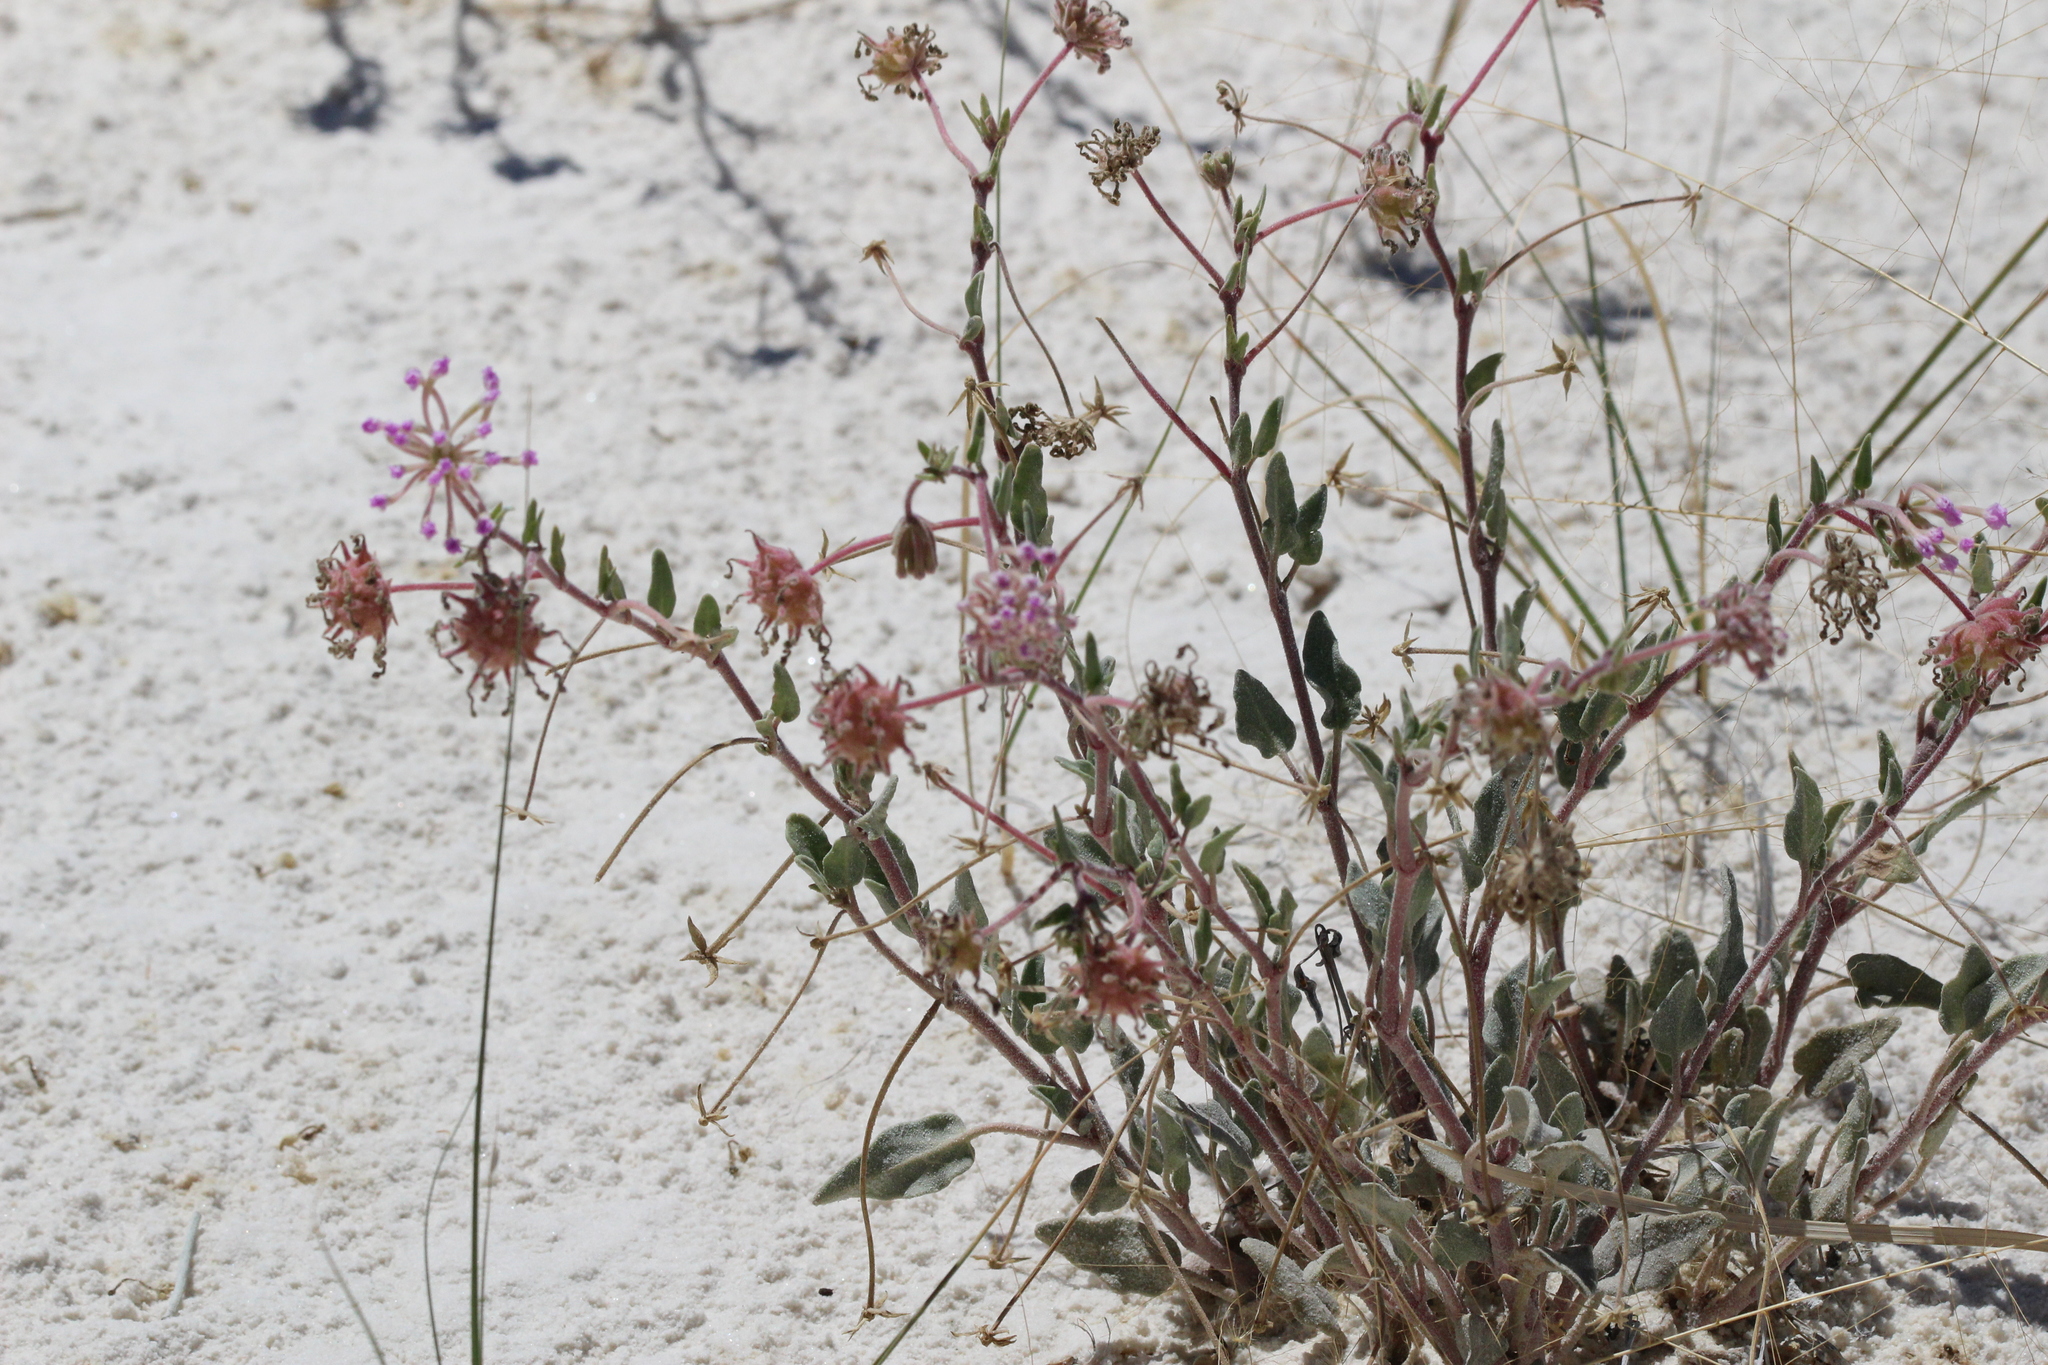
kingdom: Plantae
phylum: Tracheophyta
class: Magnoliopsida
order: Caryophyllales
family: Nyctaginaceae
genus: Abronia
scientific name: Abronia angustifolia
